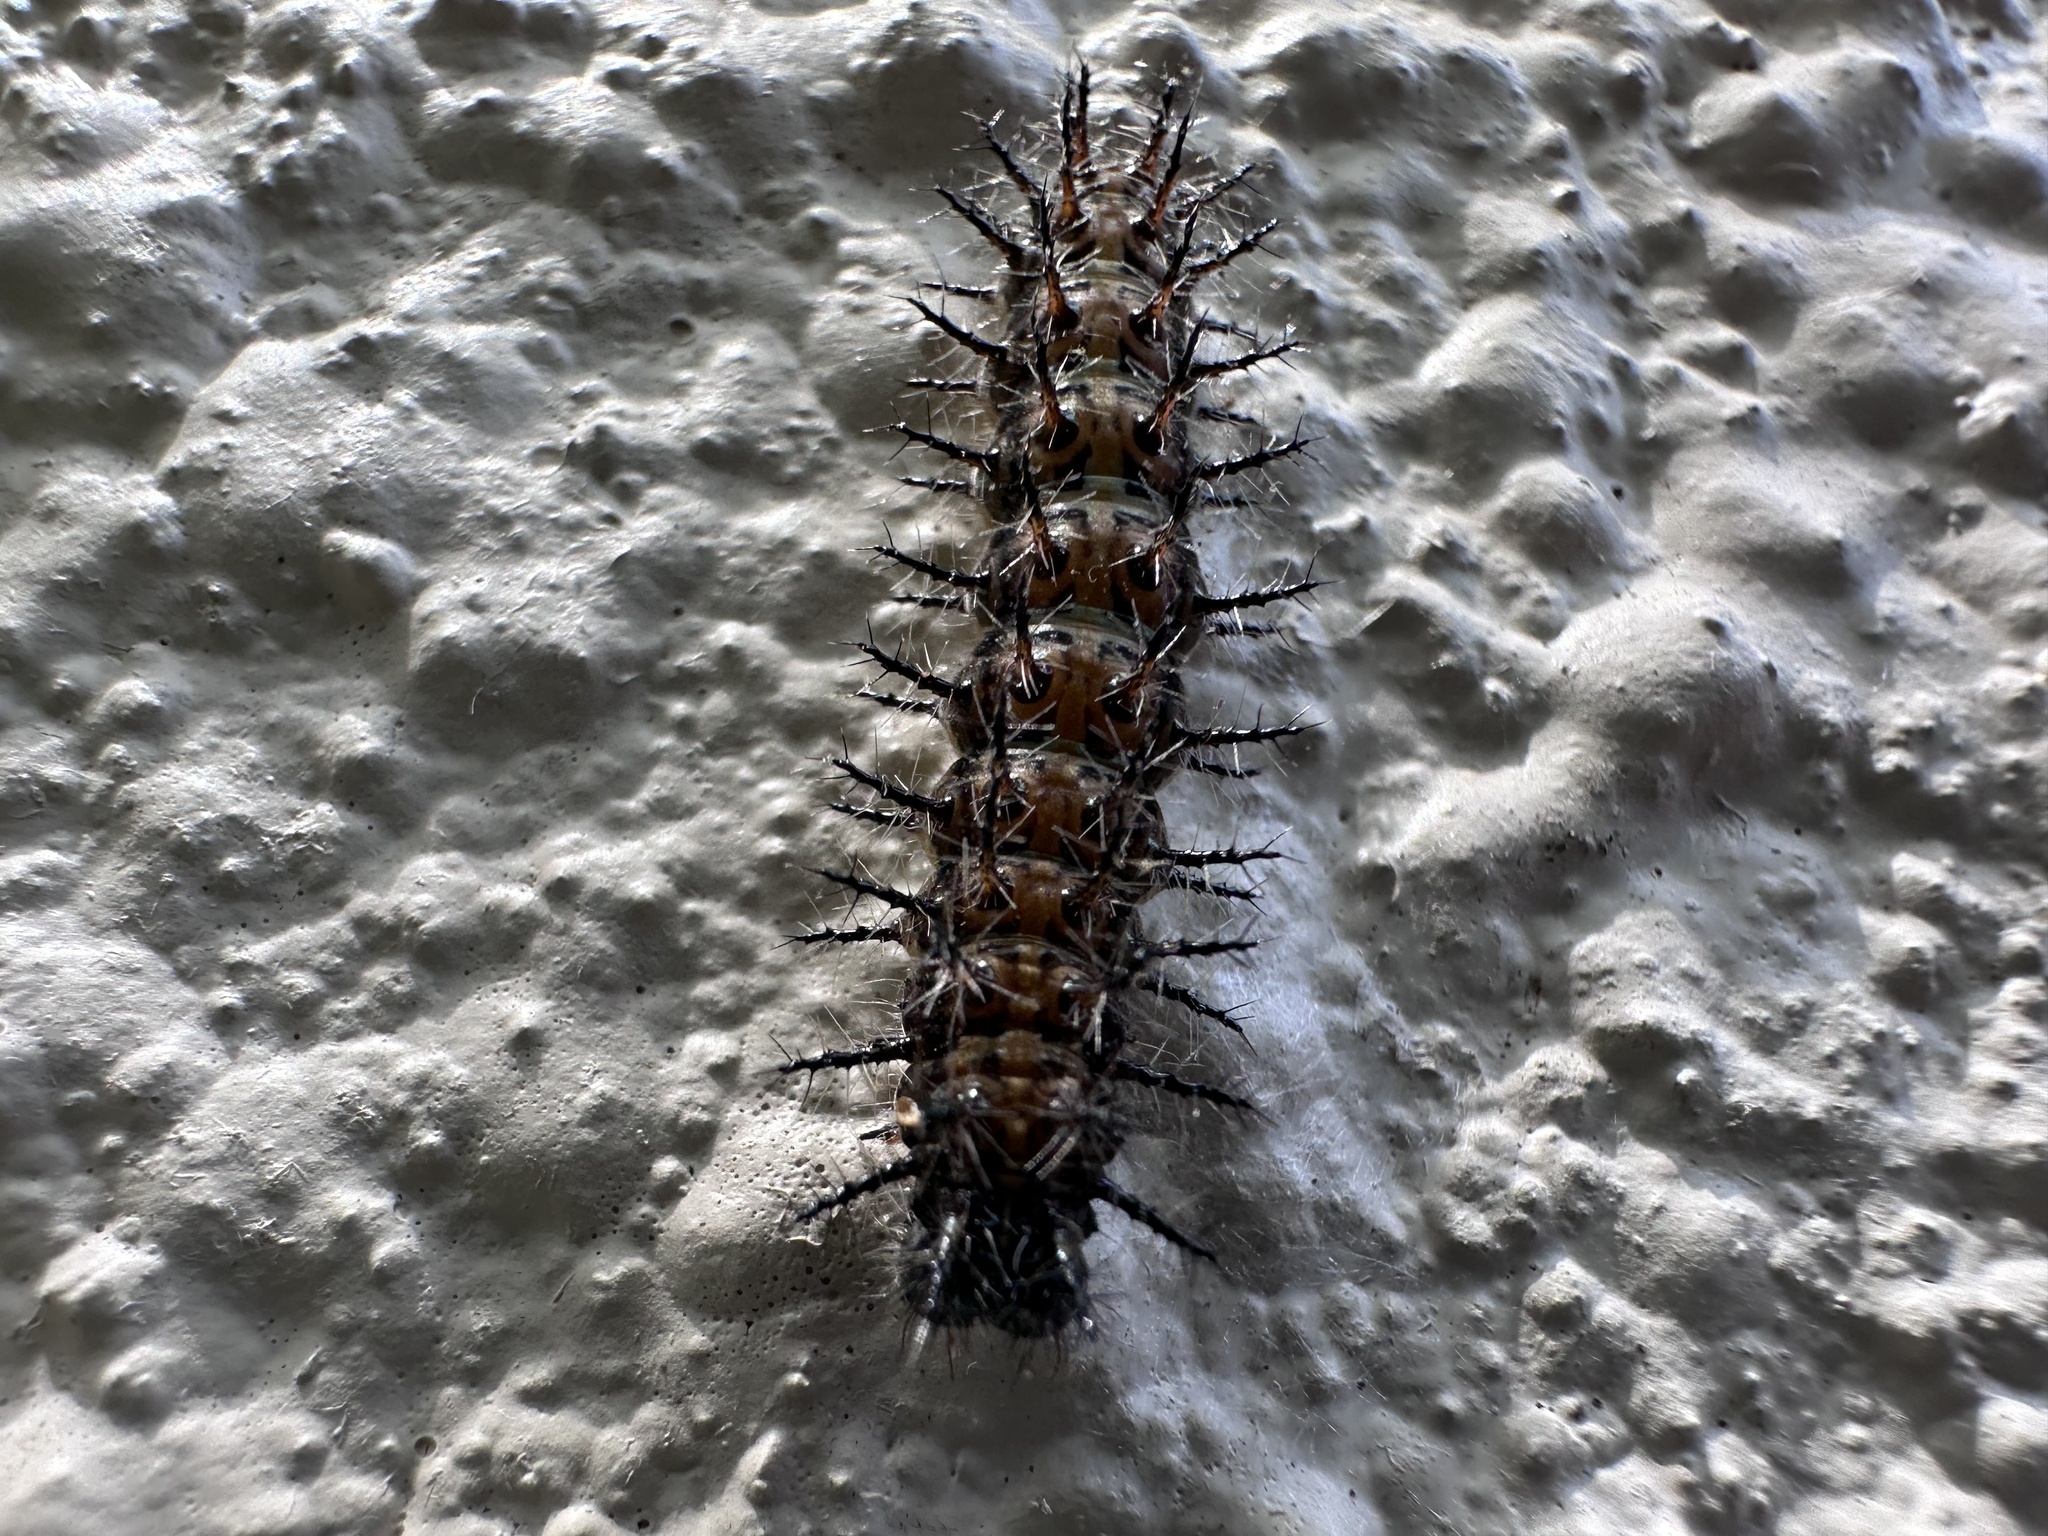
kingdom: Animalia
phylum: Arthropoda
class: Insecta
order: Lepidoptera
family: Nymphalidae
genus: Acraea
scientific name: Acraea horta
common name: Garden acraea
